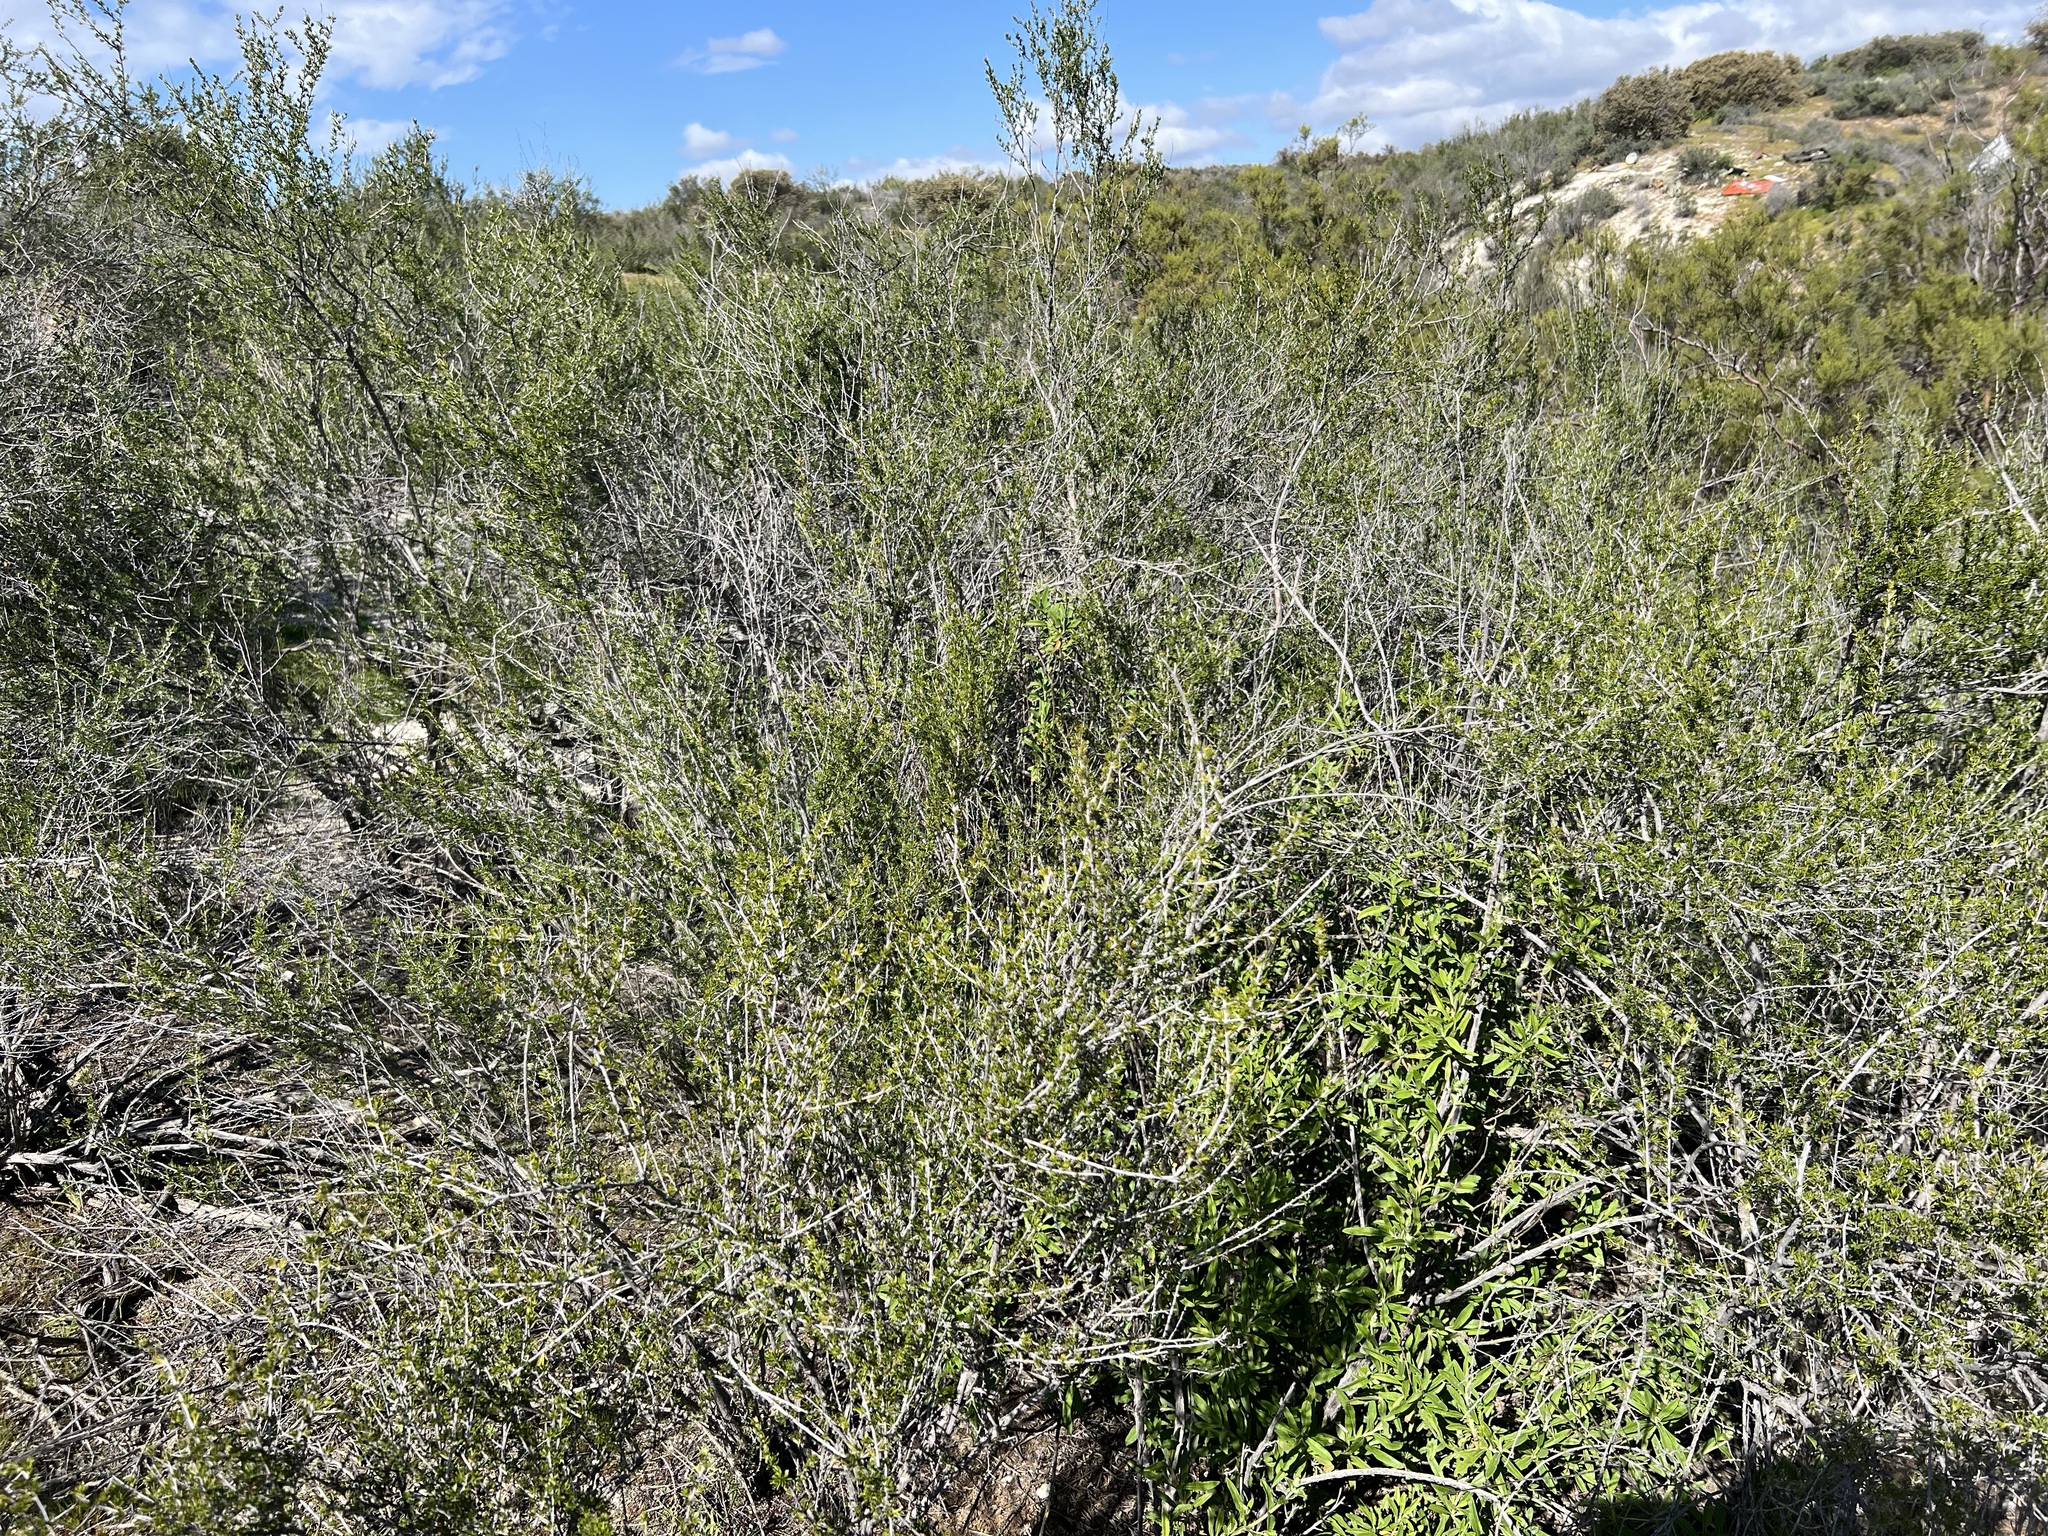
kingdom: Plantae
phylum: Tracheophyta
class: Magnoliopsida
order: Rosales
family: Rosaceae
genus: Adenostoma
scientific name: Adenostoma fasciculatum
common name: Chamise
